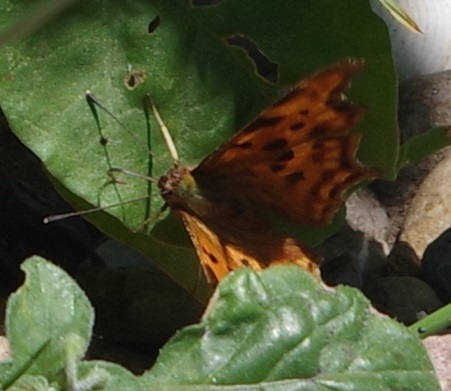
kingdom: Animalia
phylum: Arthropoda
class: Insecta
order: Lepidoptera
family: Nymphalidae
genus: Polygonia
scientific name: Polygonia c-album
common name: Comma
